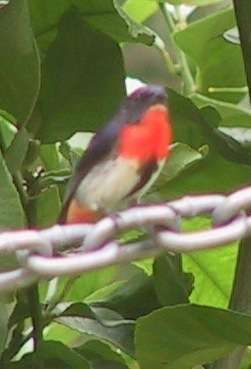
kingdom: Animalia
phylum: Chordata
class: Aves
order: Passeriformes
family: Dicaeidae
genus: Dicaeum
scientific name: Dicaeum hirundinaceum
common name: Mistletoebird
